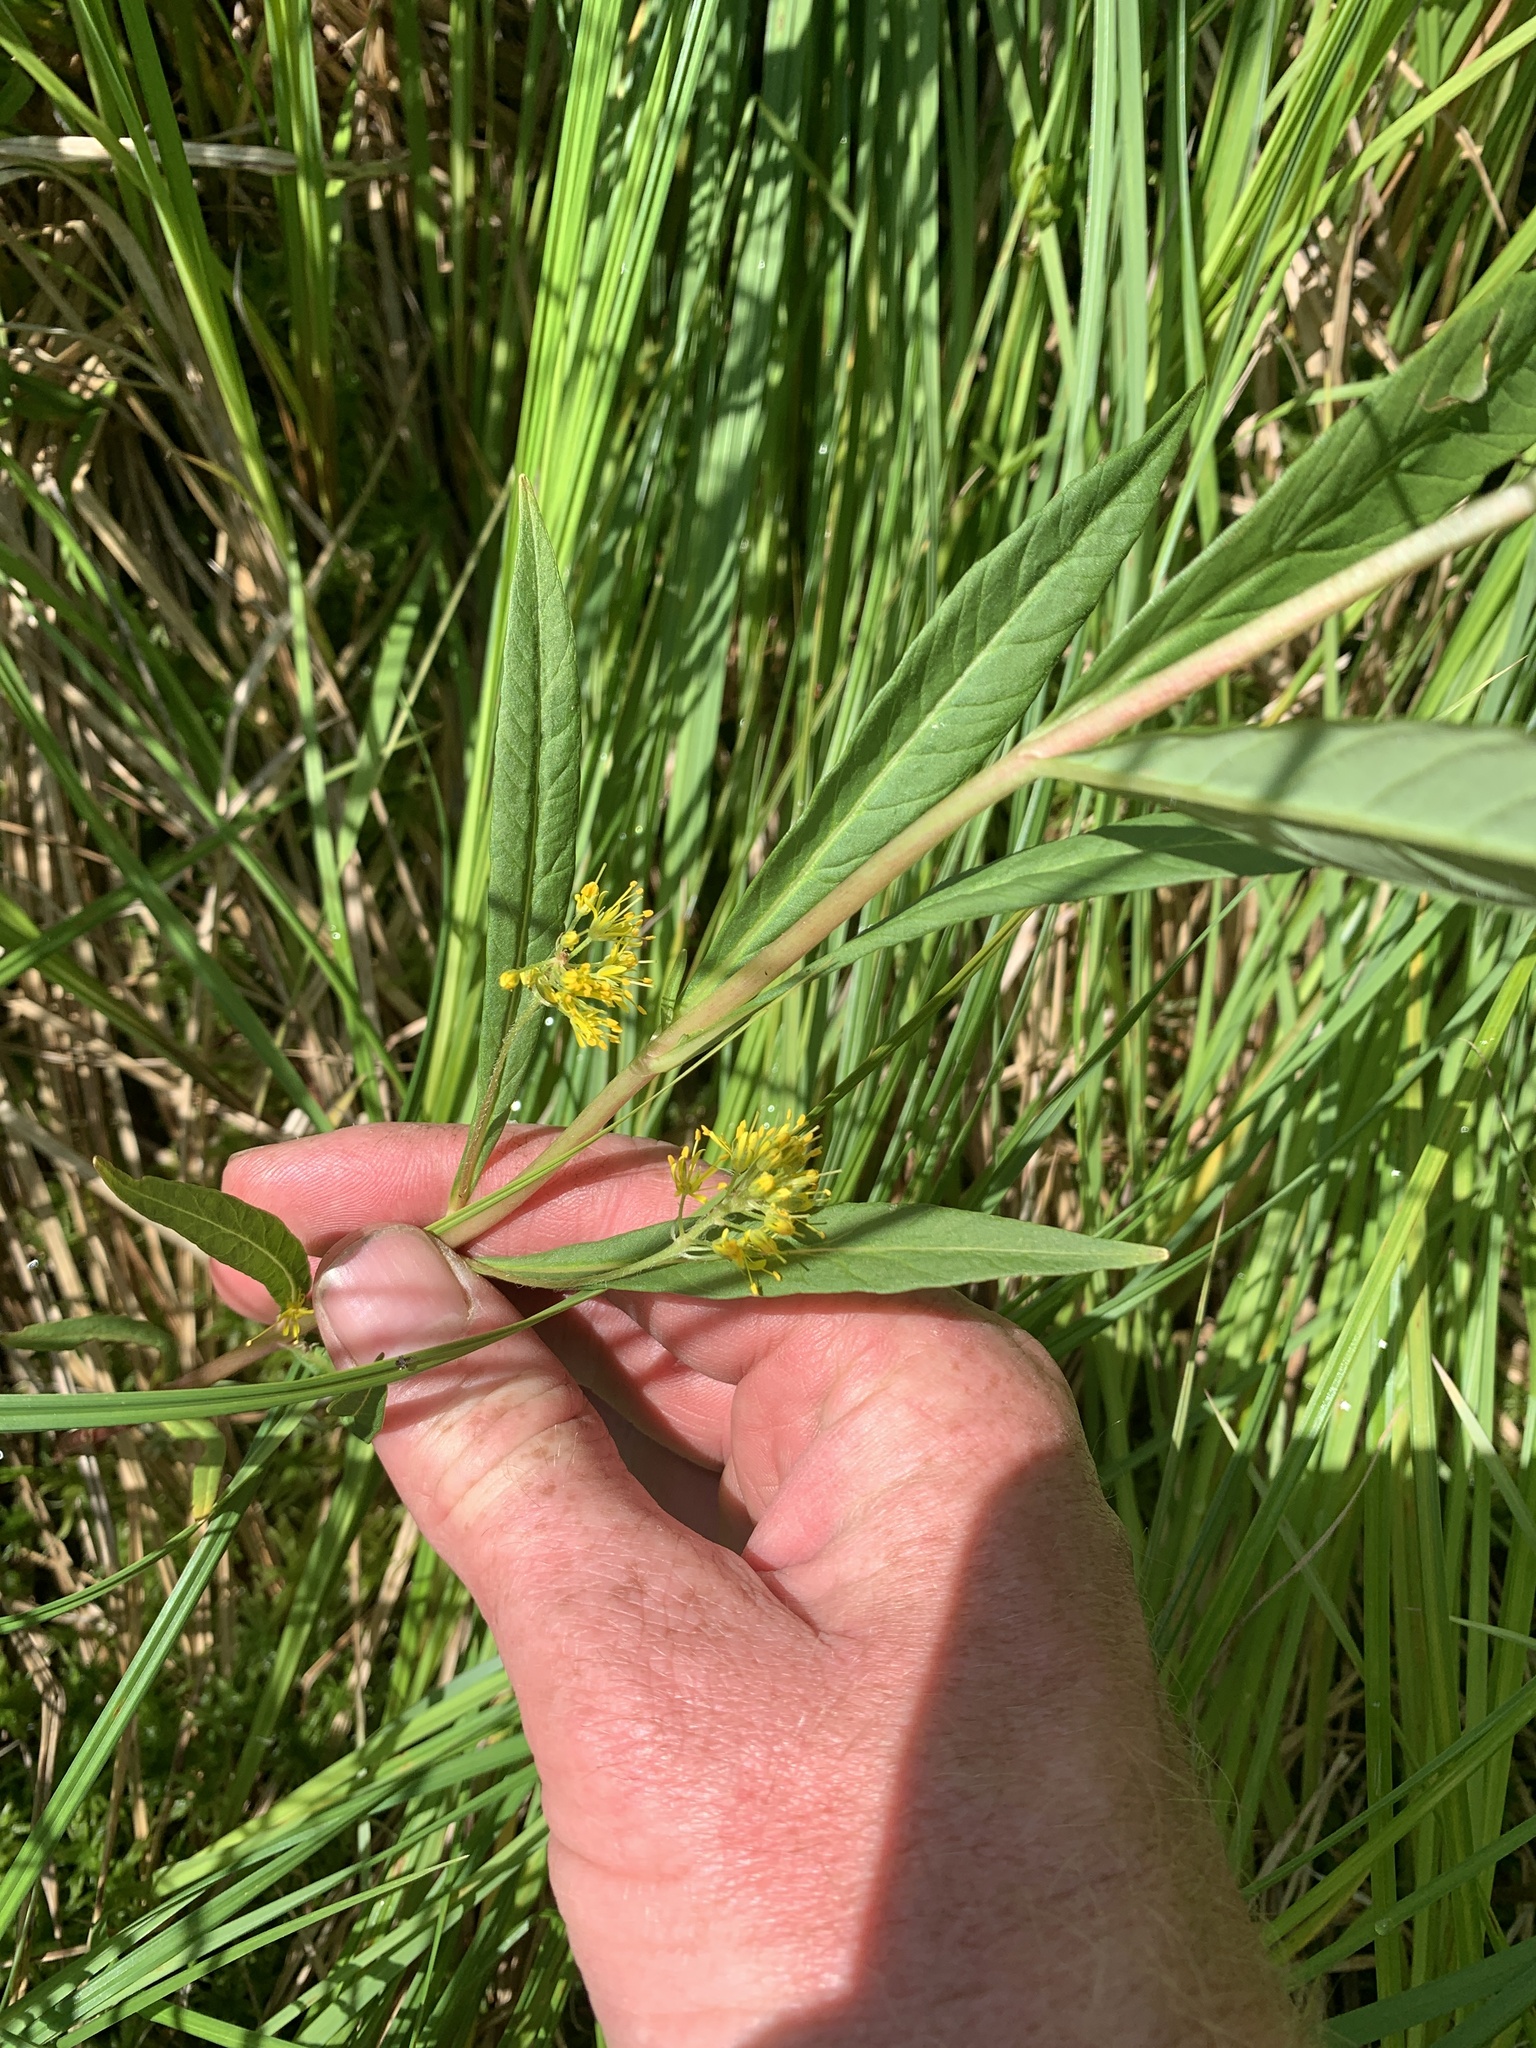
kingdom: Plantae
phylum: Tracheophyta
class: Magnoliopsida
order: Ericales
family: Primulaceae
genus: Lysimachia
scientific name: Lysimachia thyrsiflora
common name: Tufted loosestrife
